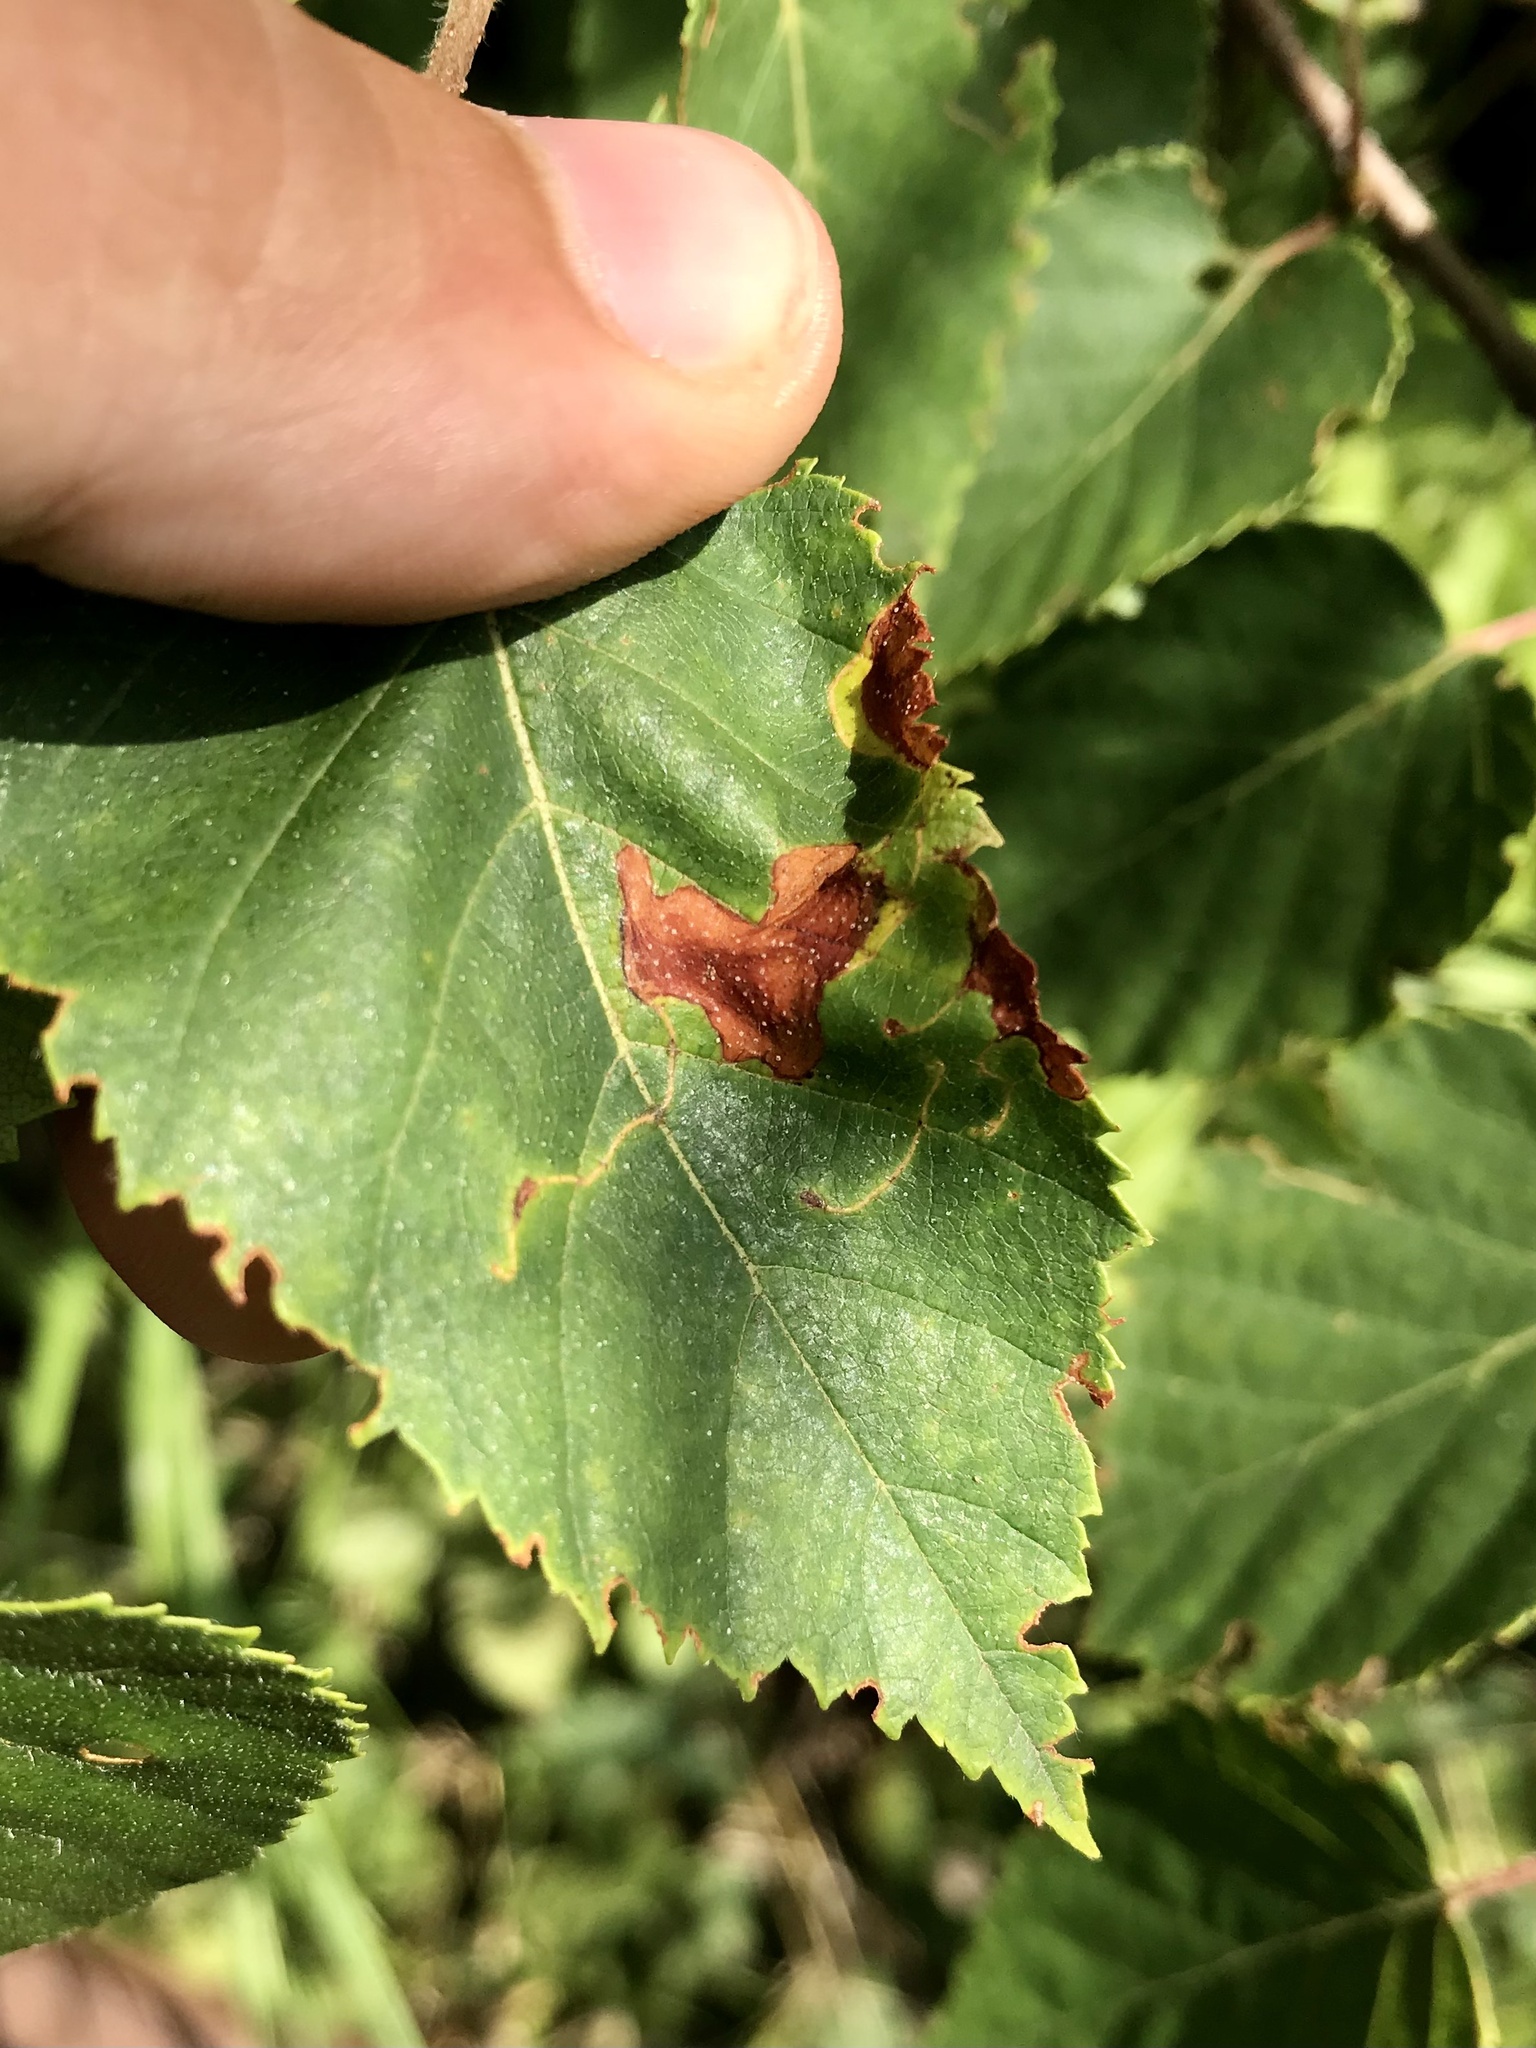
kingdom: Animalia
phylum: Arthropoda
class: Insecta
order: Lepidoptera
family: Lyonetiidae
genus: Lyonetia
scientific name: Lyonetia prunifoliella
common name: Striped bent-wing
